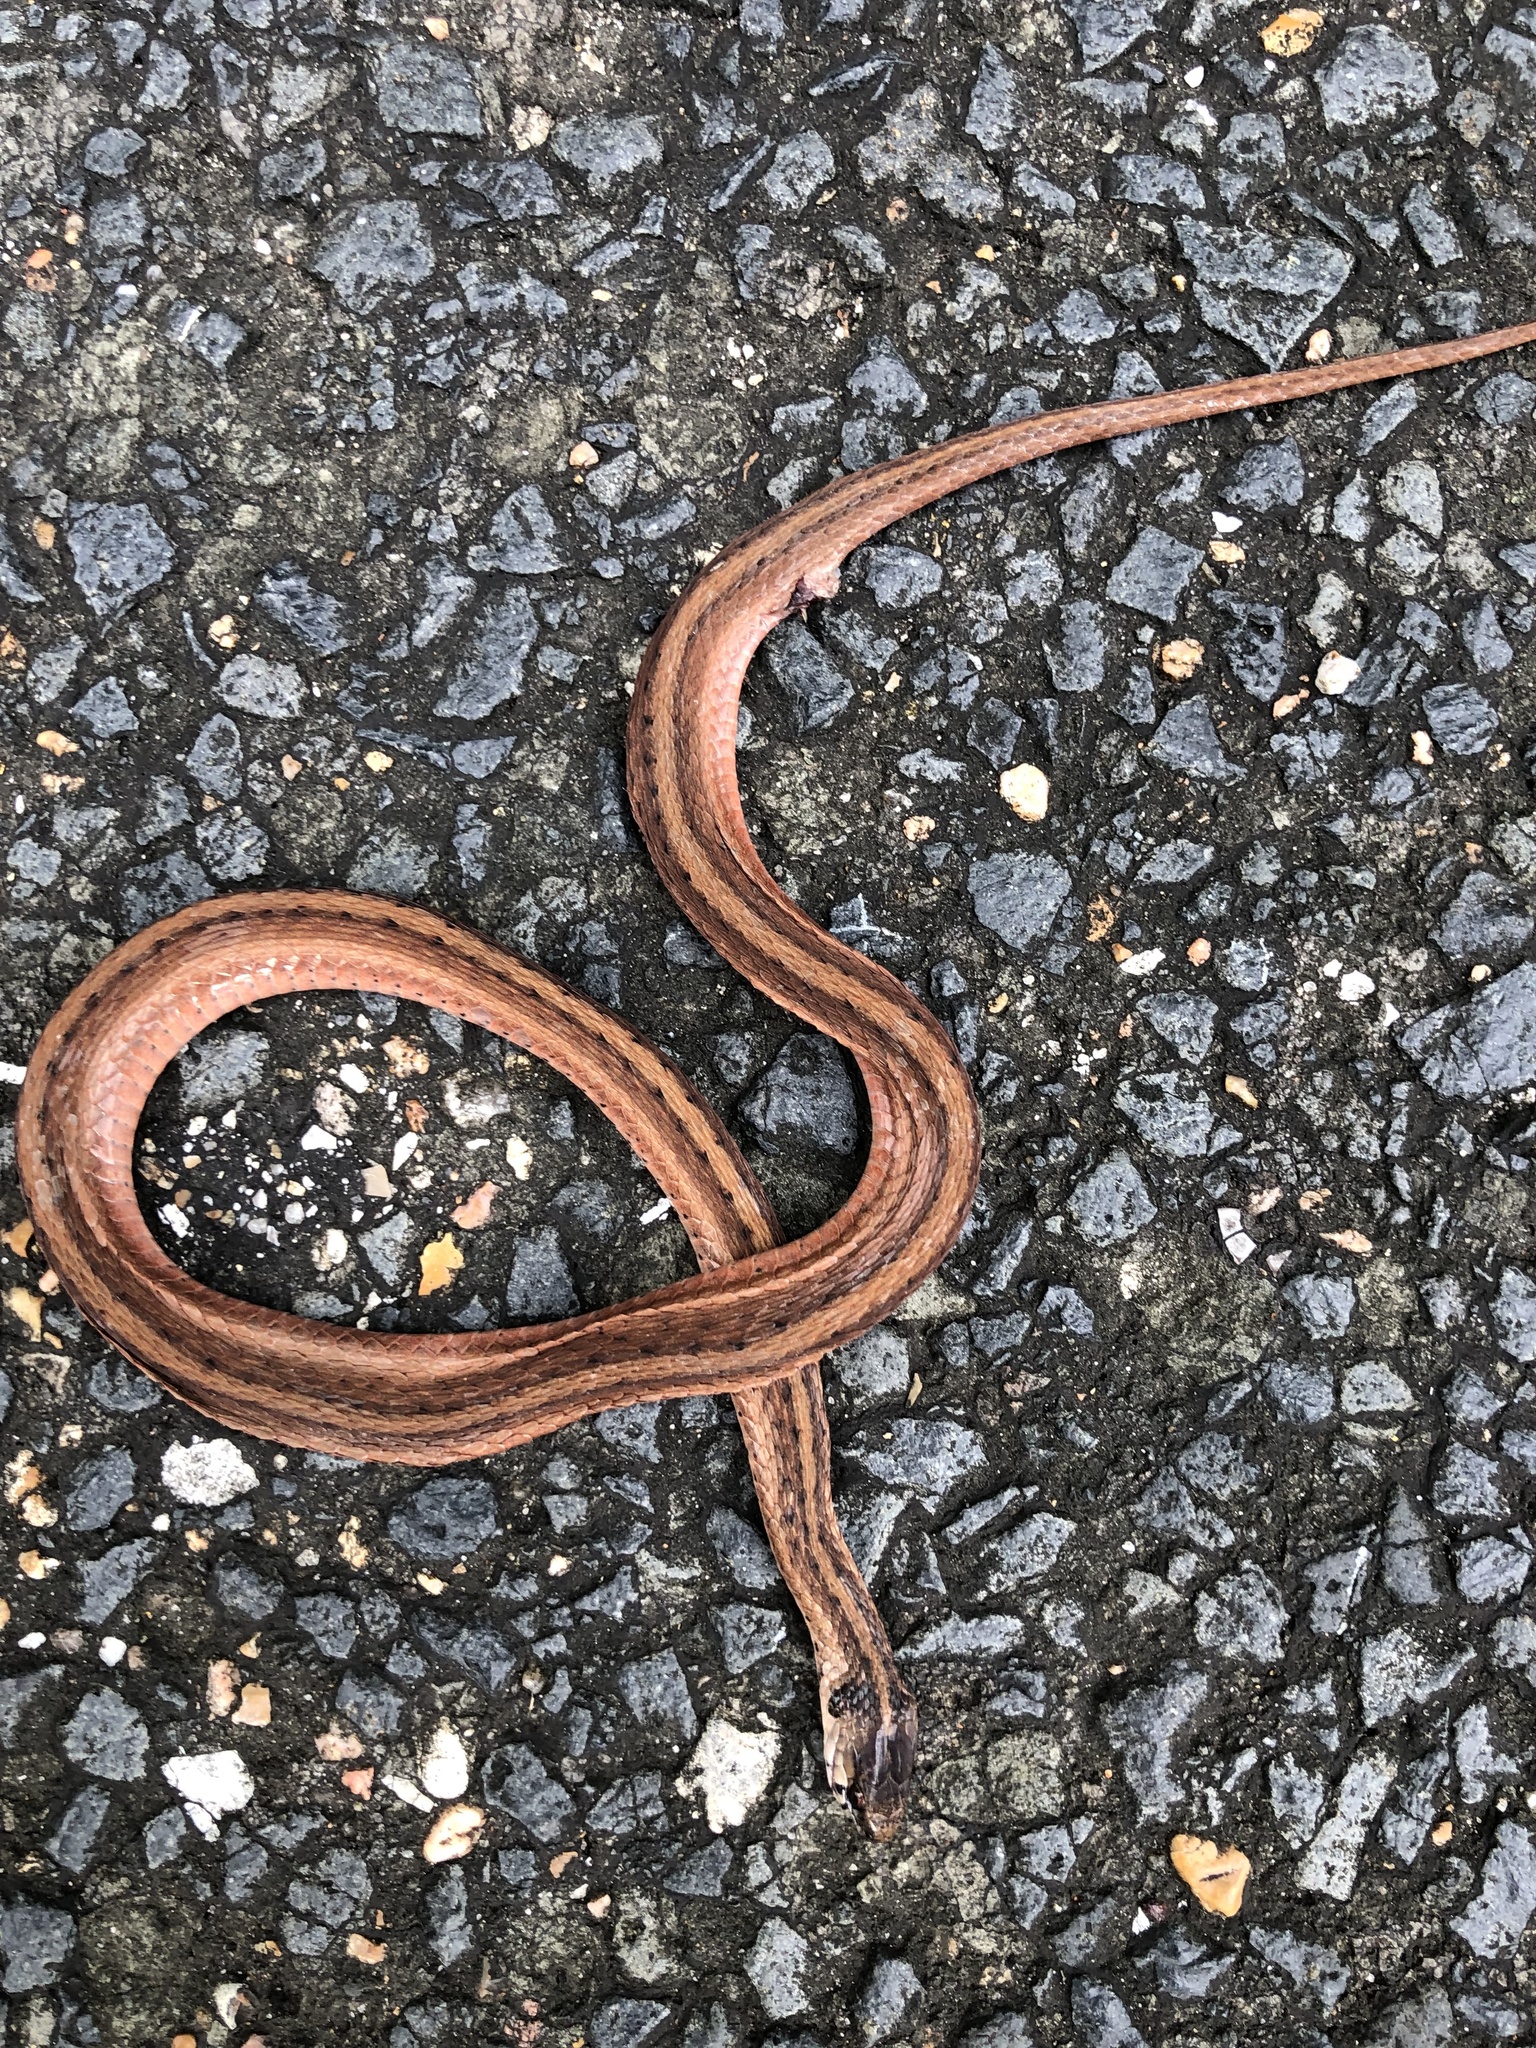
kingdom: Animalia
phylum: Chordata
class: Squamata
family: Colubridae
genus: Storeria
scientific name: Storeria dekayi
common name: (dekay’s) brown snake
